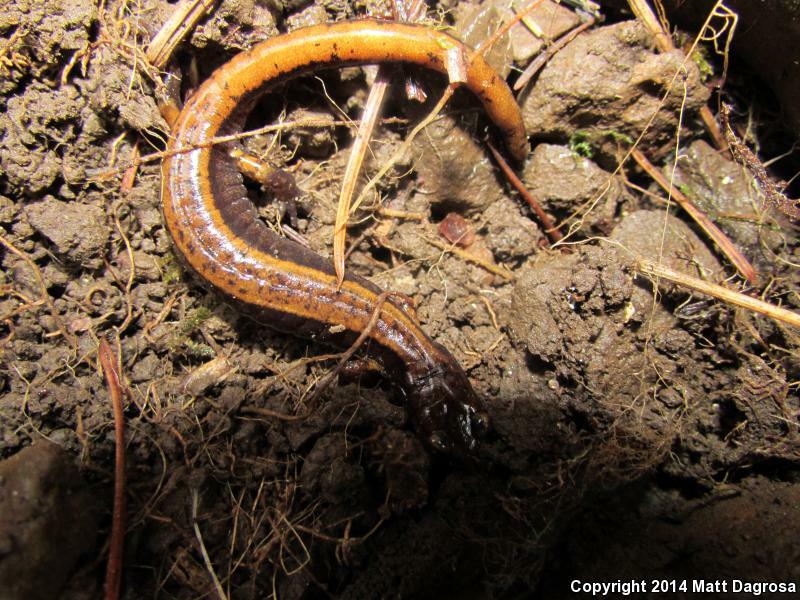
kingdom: Animalia
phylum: Chordata
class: Amphibia
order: Caudata
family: Plethodontidae
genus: Plethodon
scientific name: Plethodon vehiculum
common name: Western red-backed salamander
